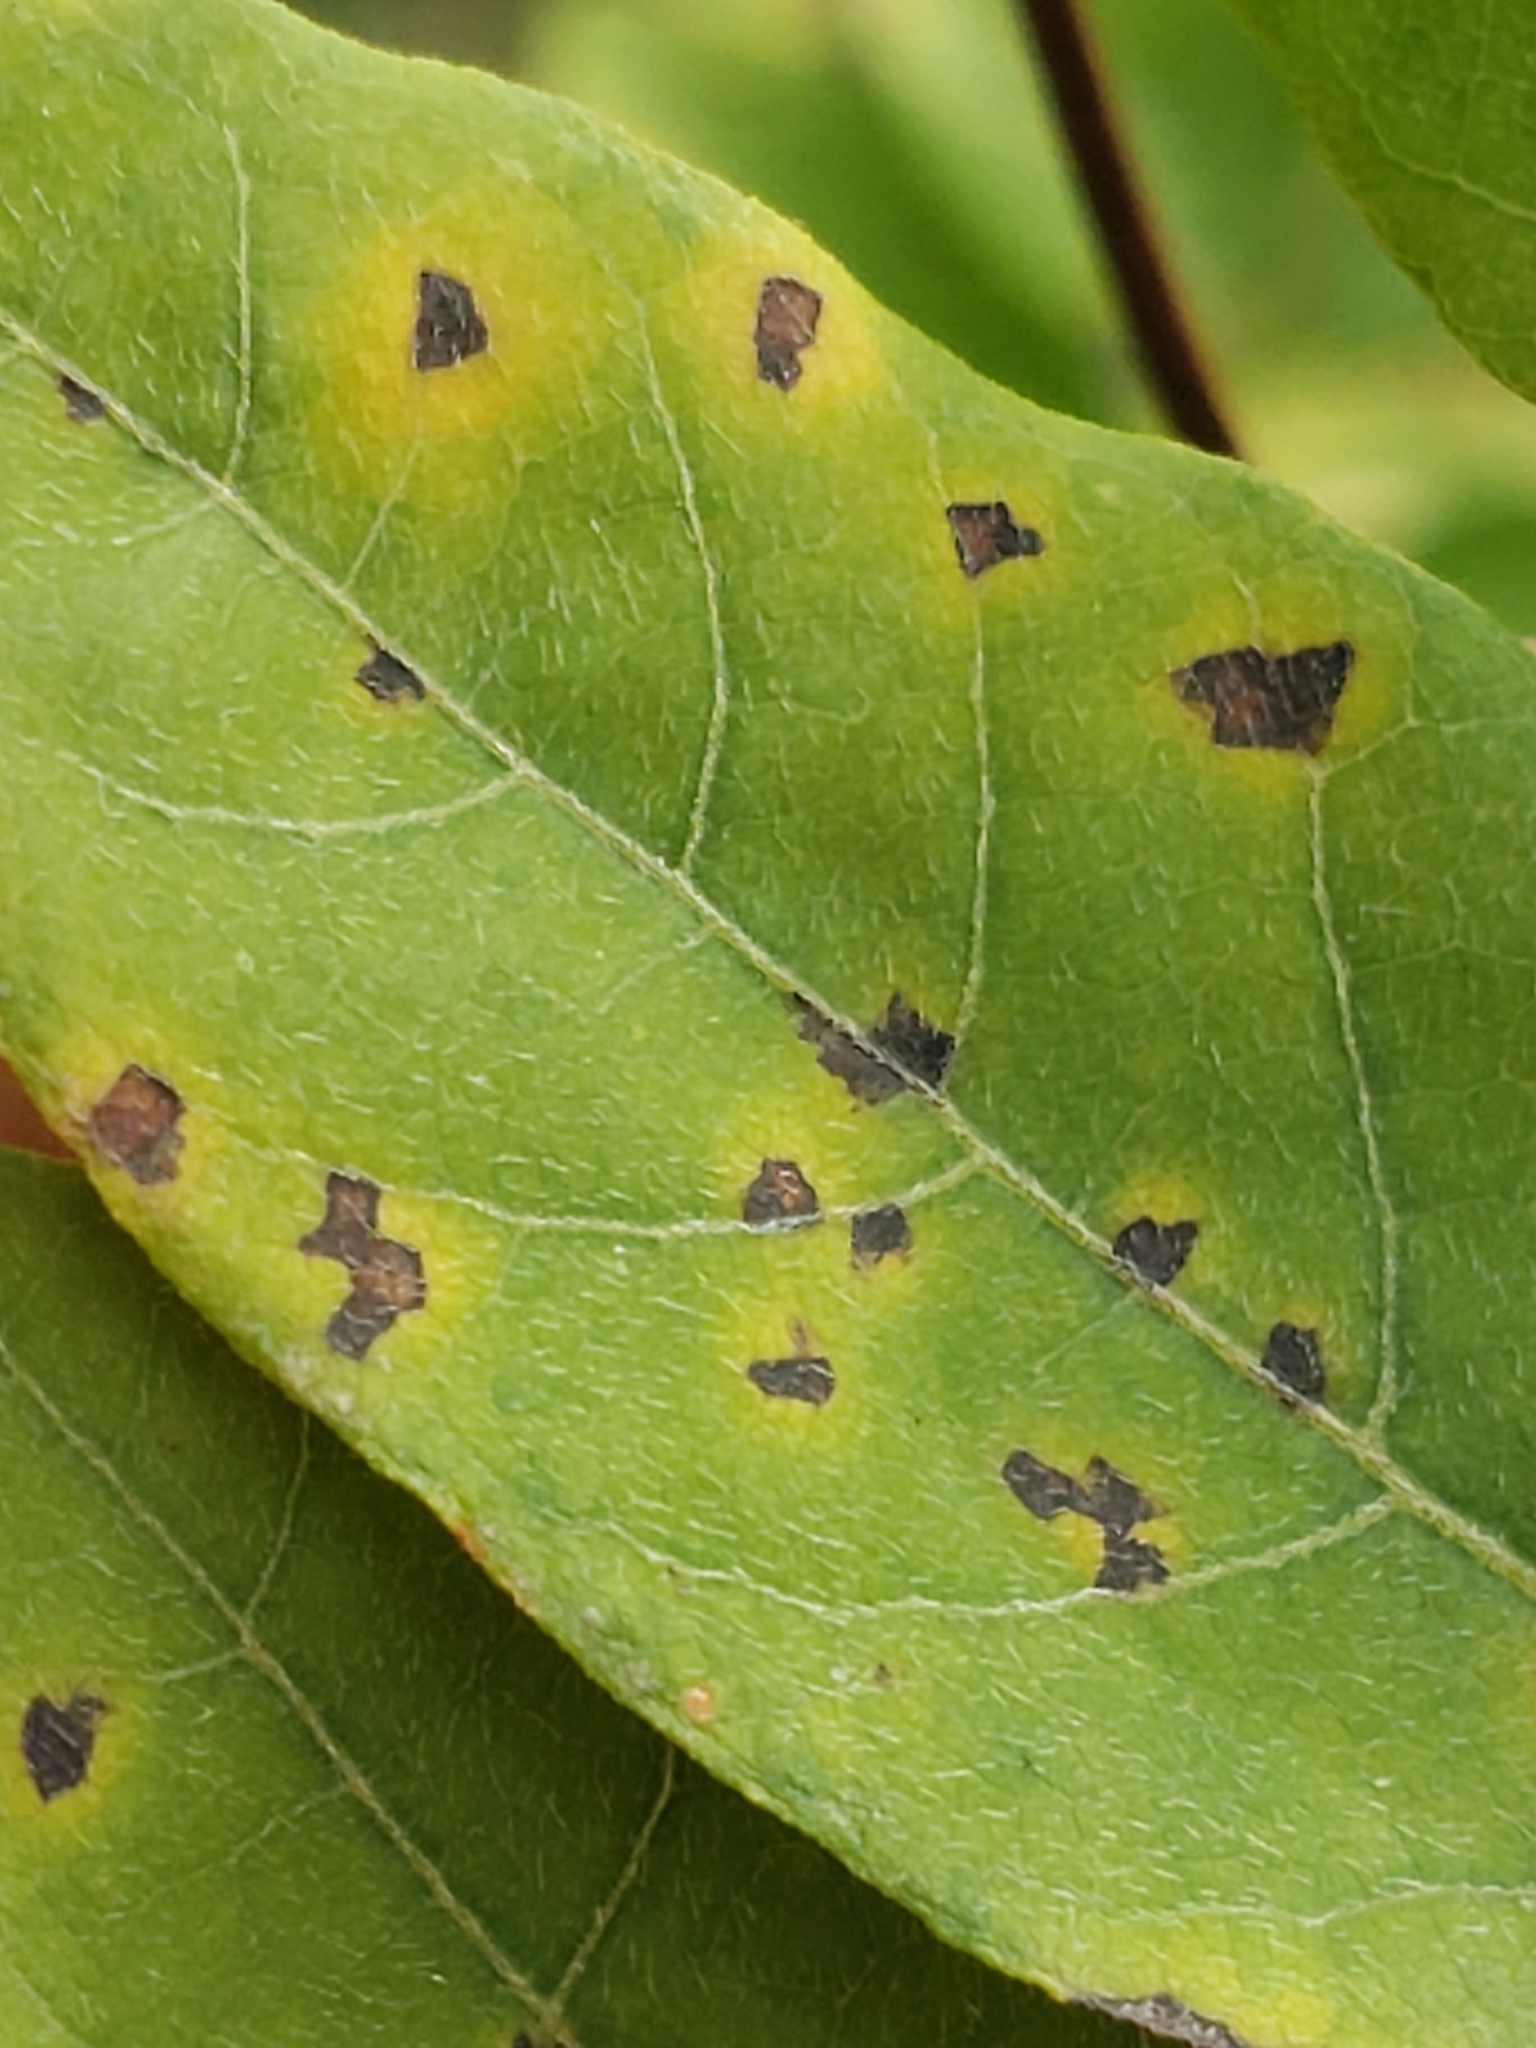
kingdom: Fungi
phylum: Ascomycota
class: Dothideomycetes
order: Mycosphaerellales
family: Mycosphaerellaceae
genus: Phloeospora
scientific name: Phloeospora robiniae
